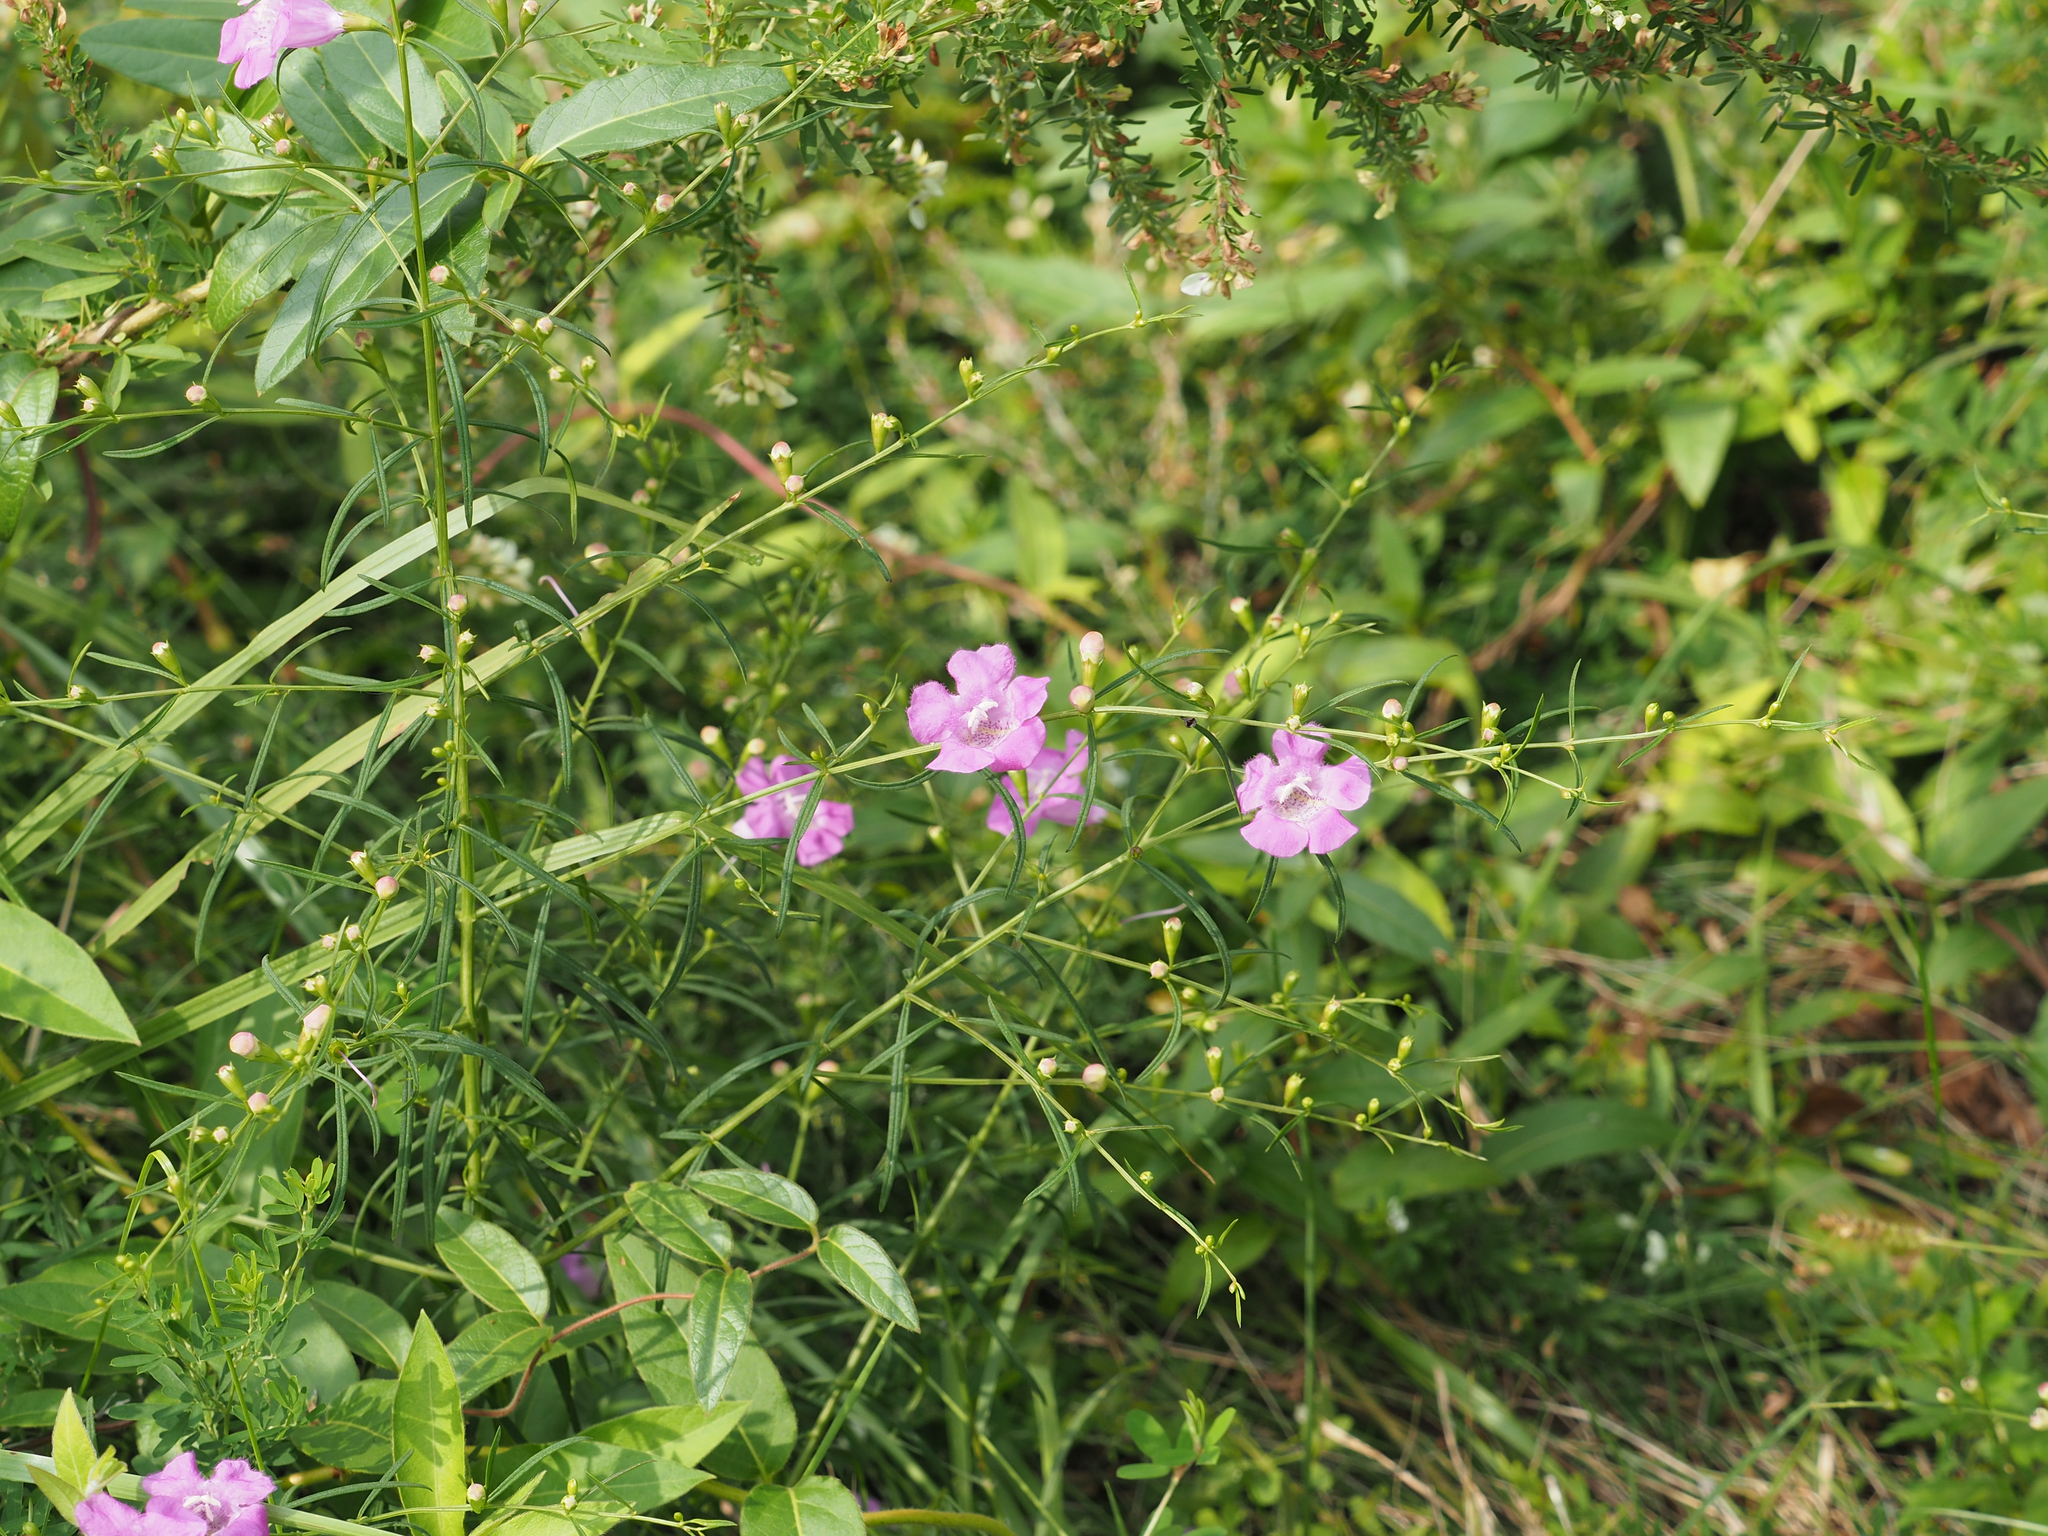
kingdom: Plantae
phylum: Tracheophyta
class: Magnoliopsida
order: Lamiales
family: Orobanchaceae
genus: Agalinis
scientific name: Agalinis purpurea
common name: Purple false foxglove
